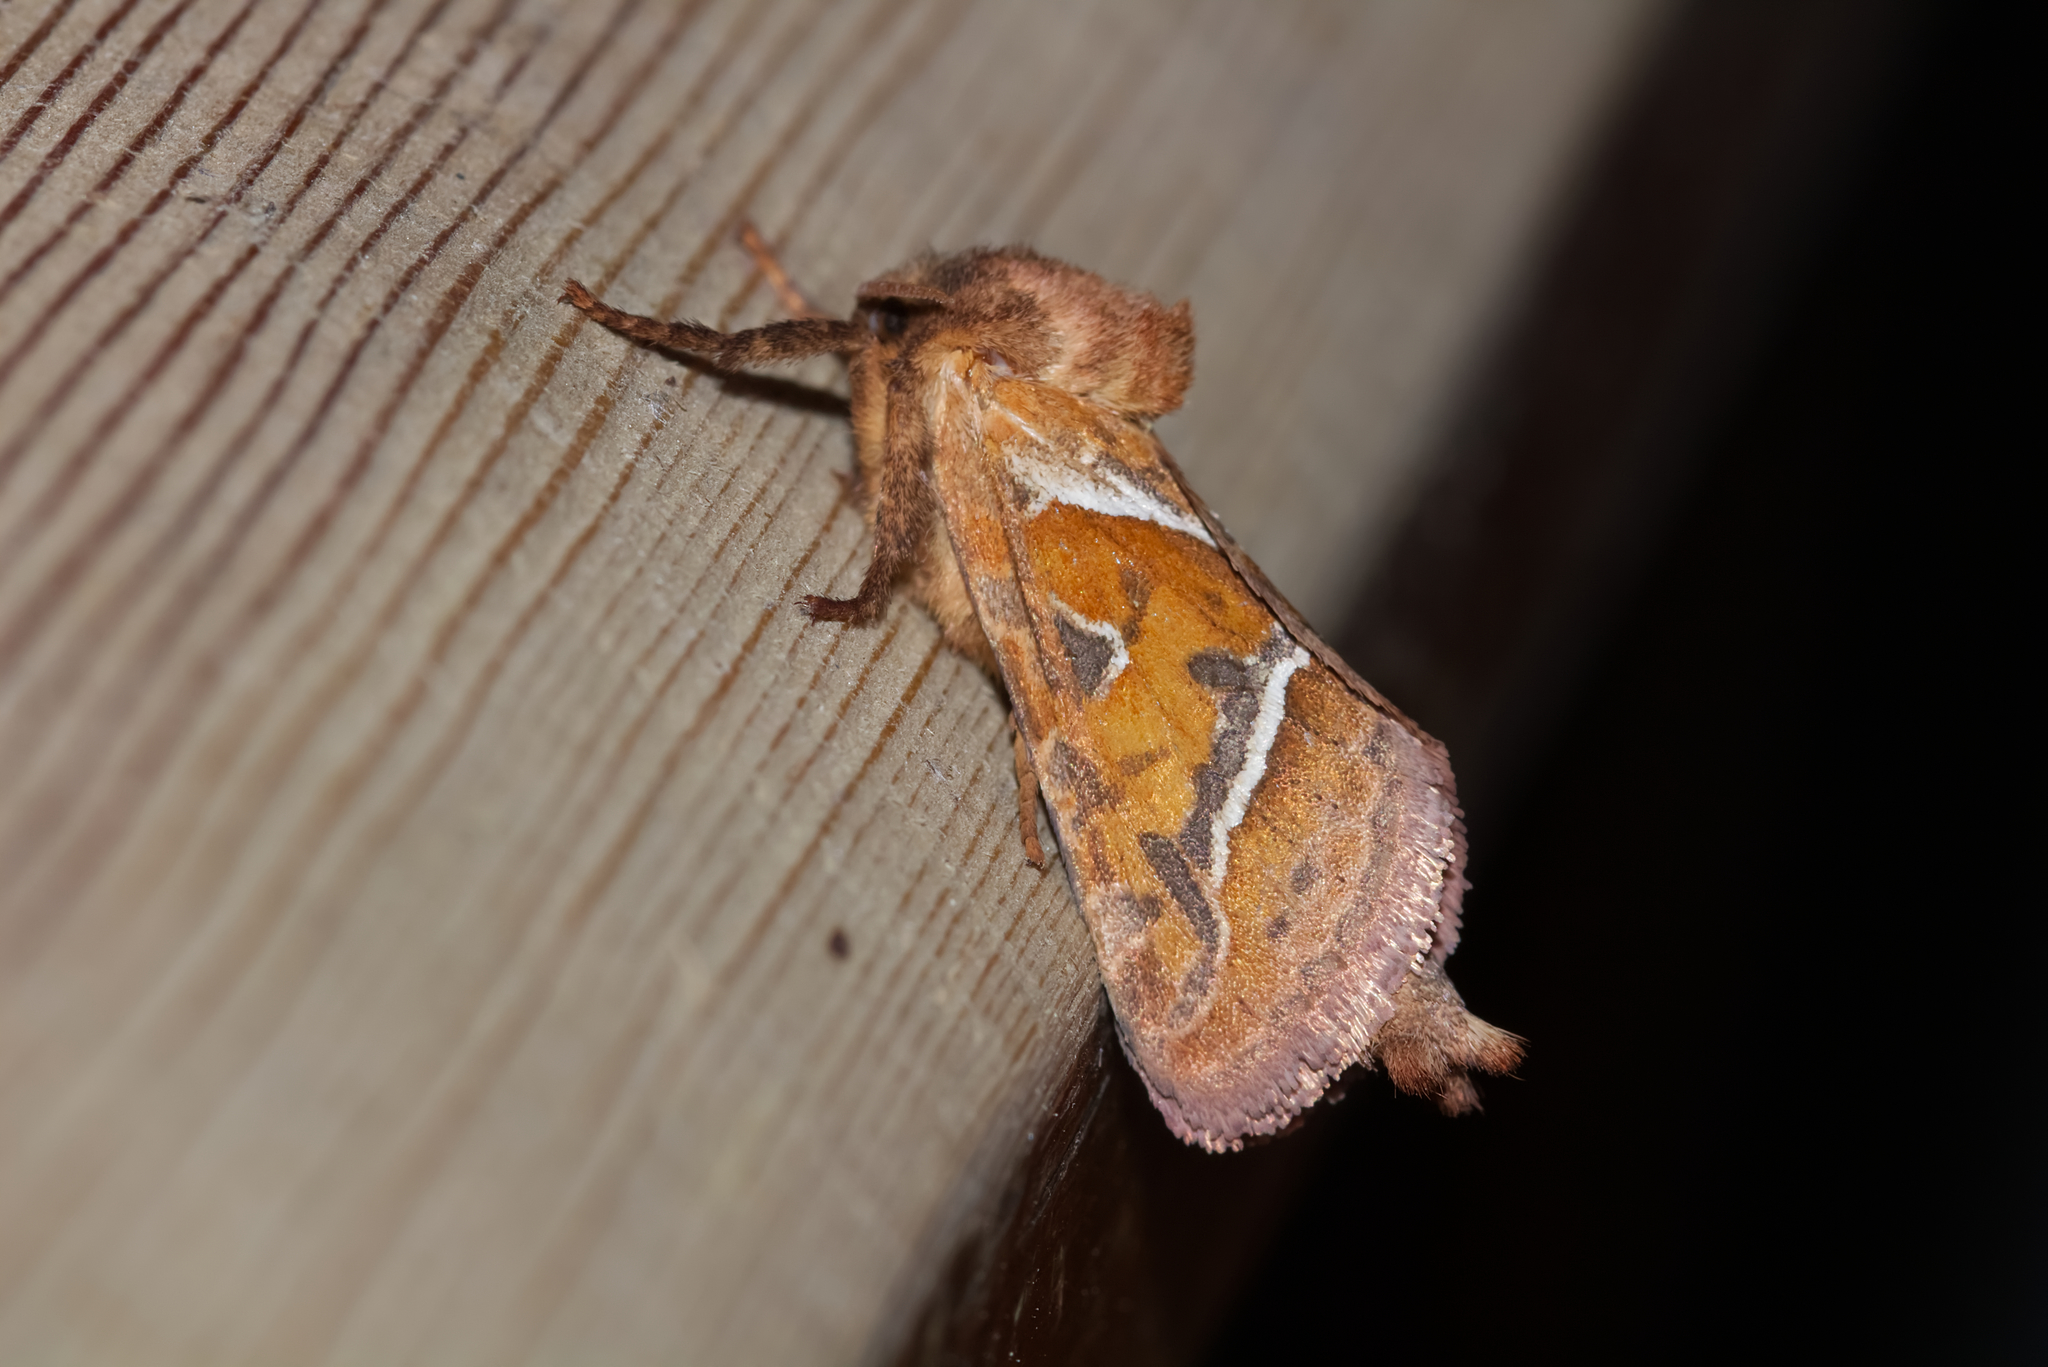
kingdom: Animalia
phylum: Arthropoda
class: Insecta
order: Lepidoptera
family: Hepialidae
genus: Triodia
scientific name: Triodia sylvina
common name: Orange swift
